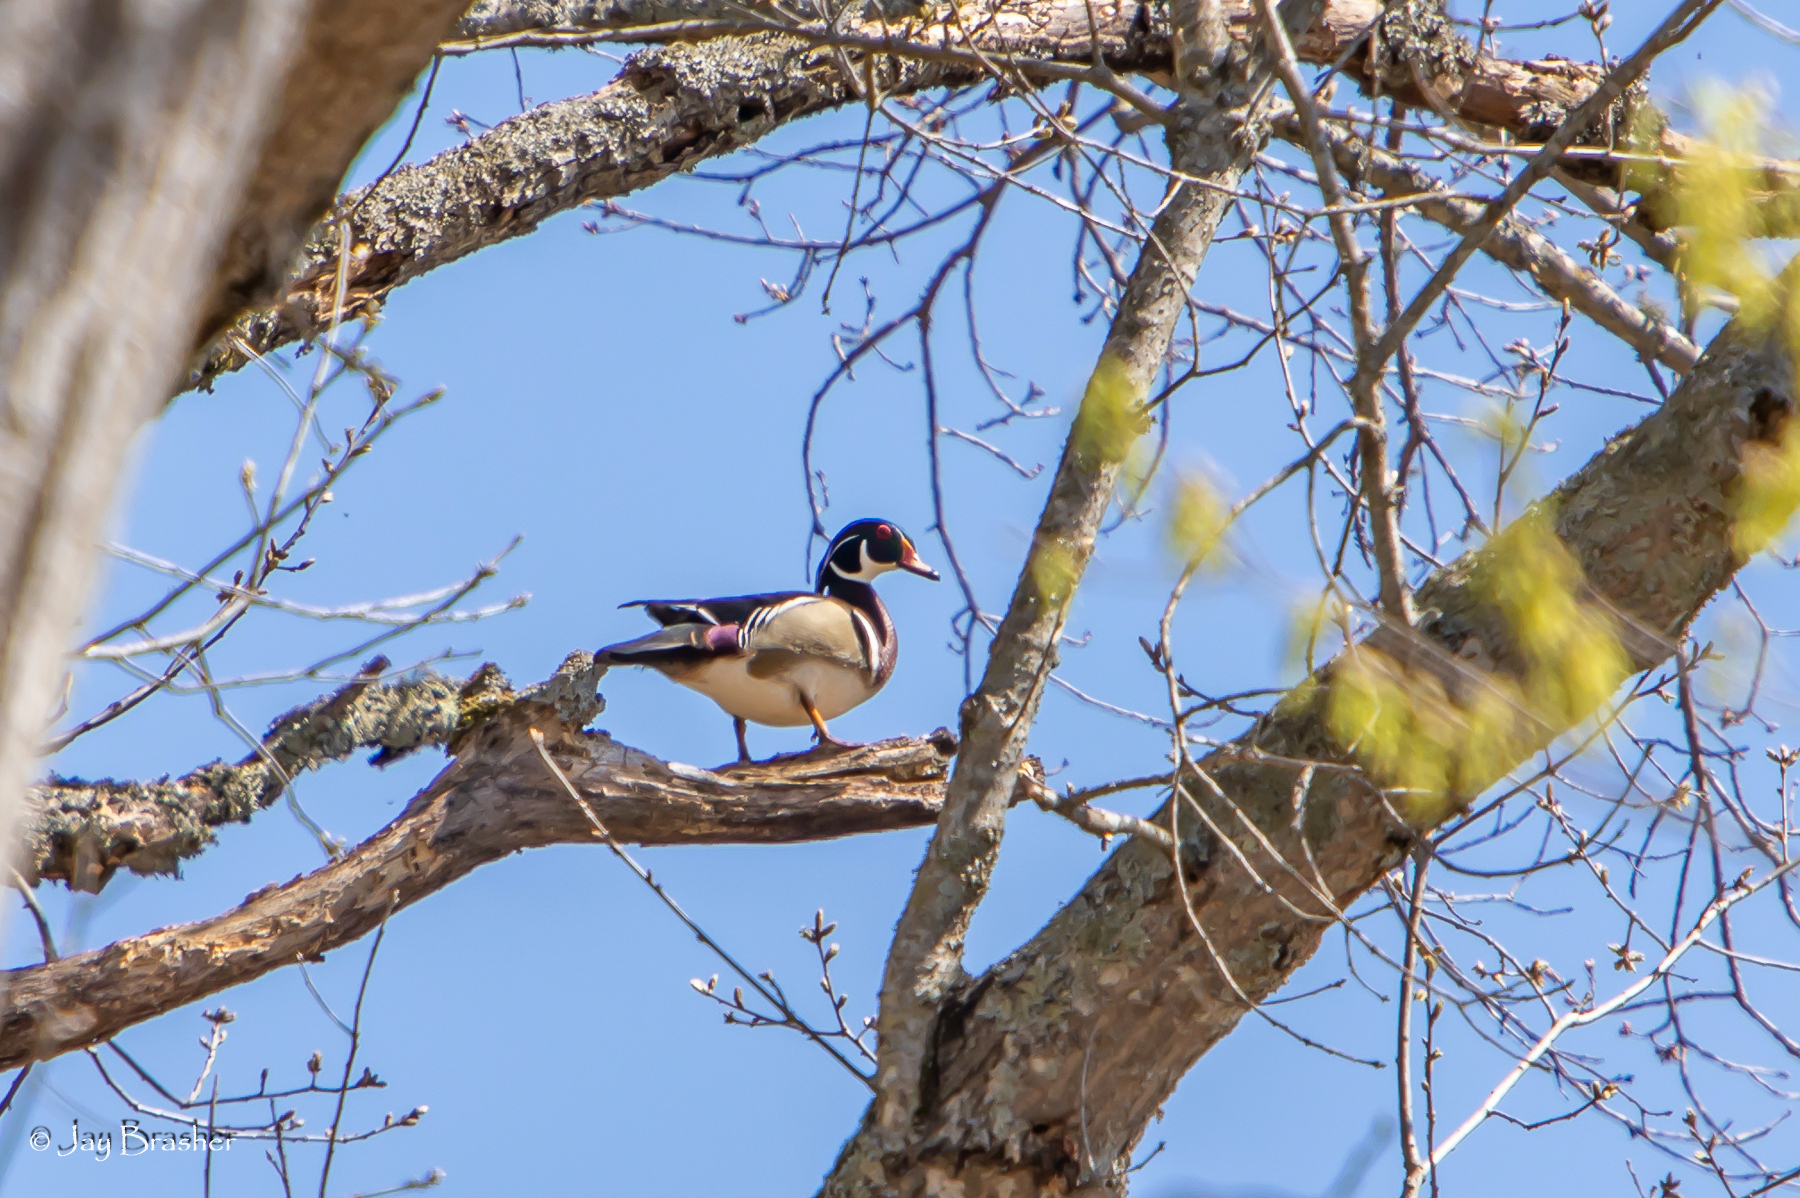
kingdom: Animalia
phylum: Chordata
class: Aves
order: Anseriformes
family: Anatidae
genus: Aix
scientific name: Aix sponsa
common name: Wood duck
